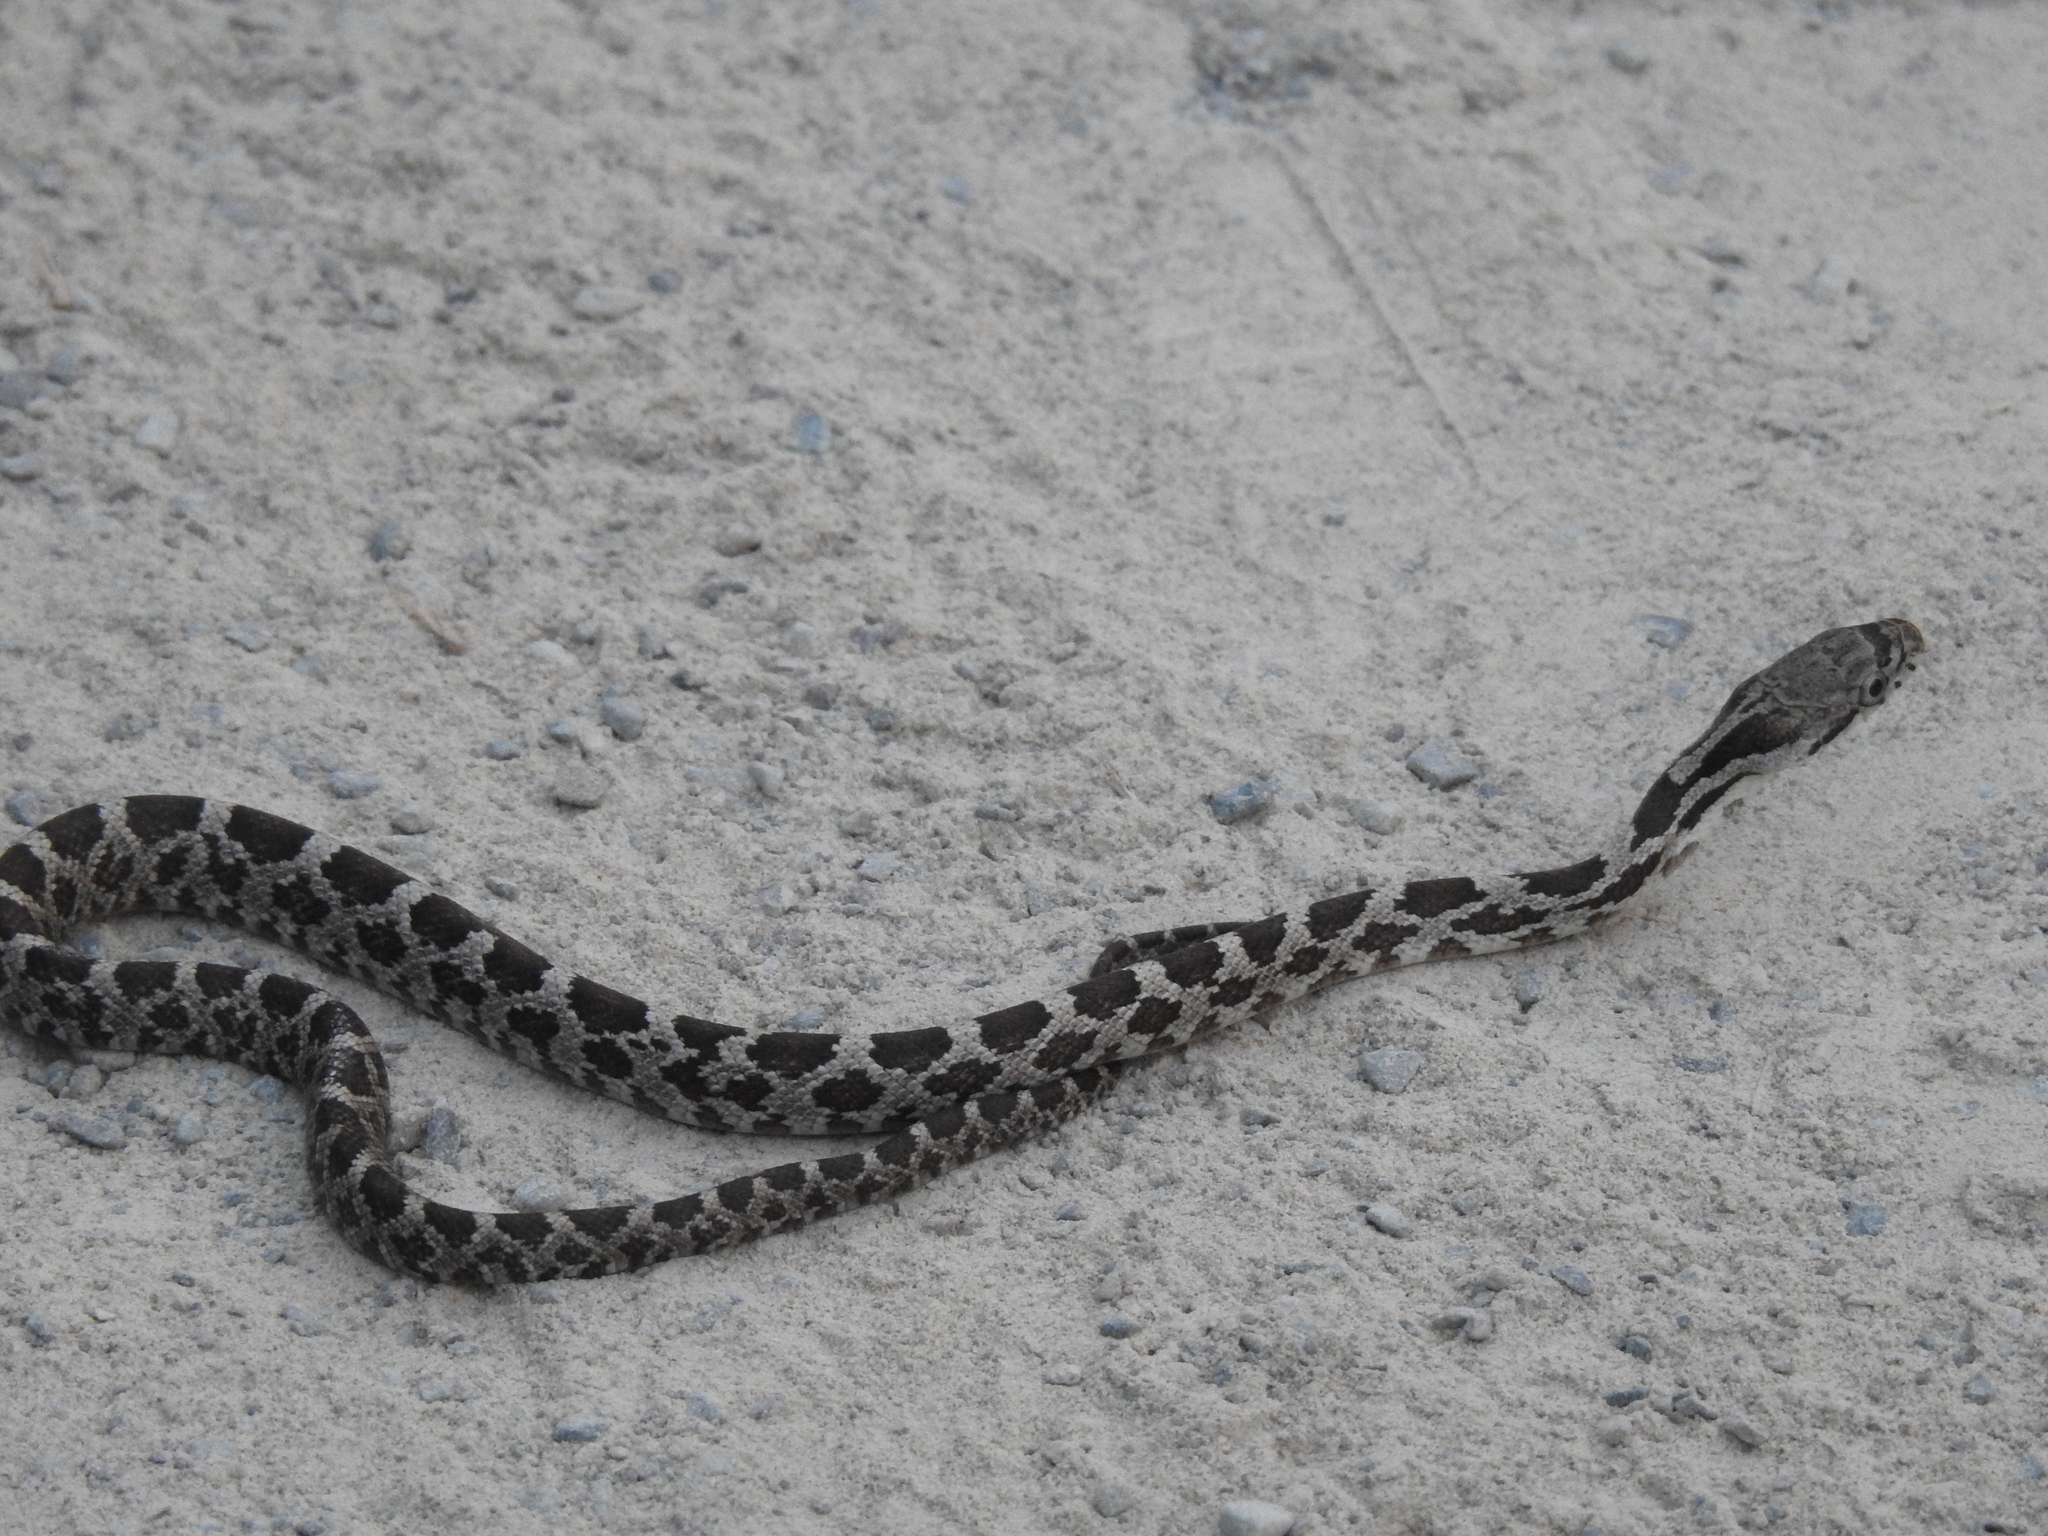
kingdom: Animalia
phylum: Chordata
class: Squamata
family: Colubridae
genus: Pantherophis
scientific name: Pantherophis spiloides
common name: Gray rat snake
